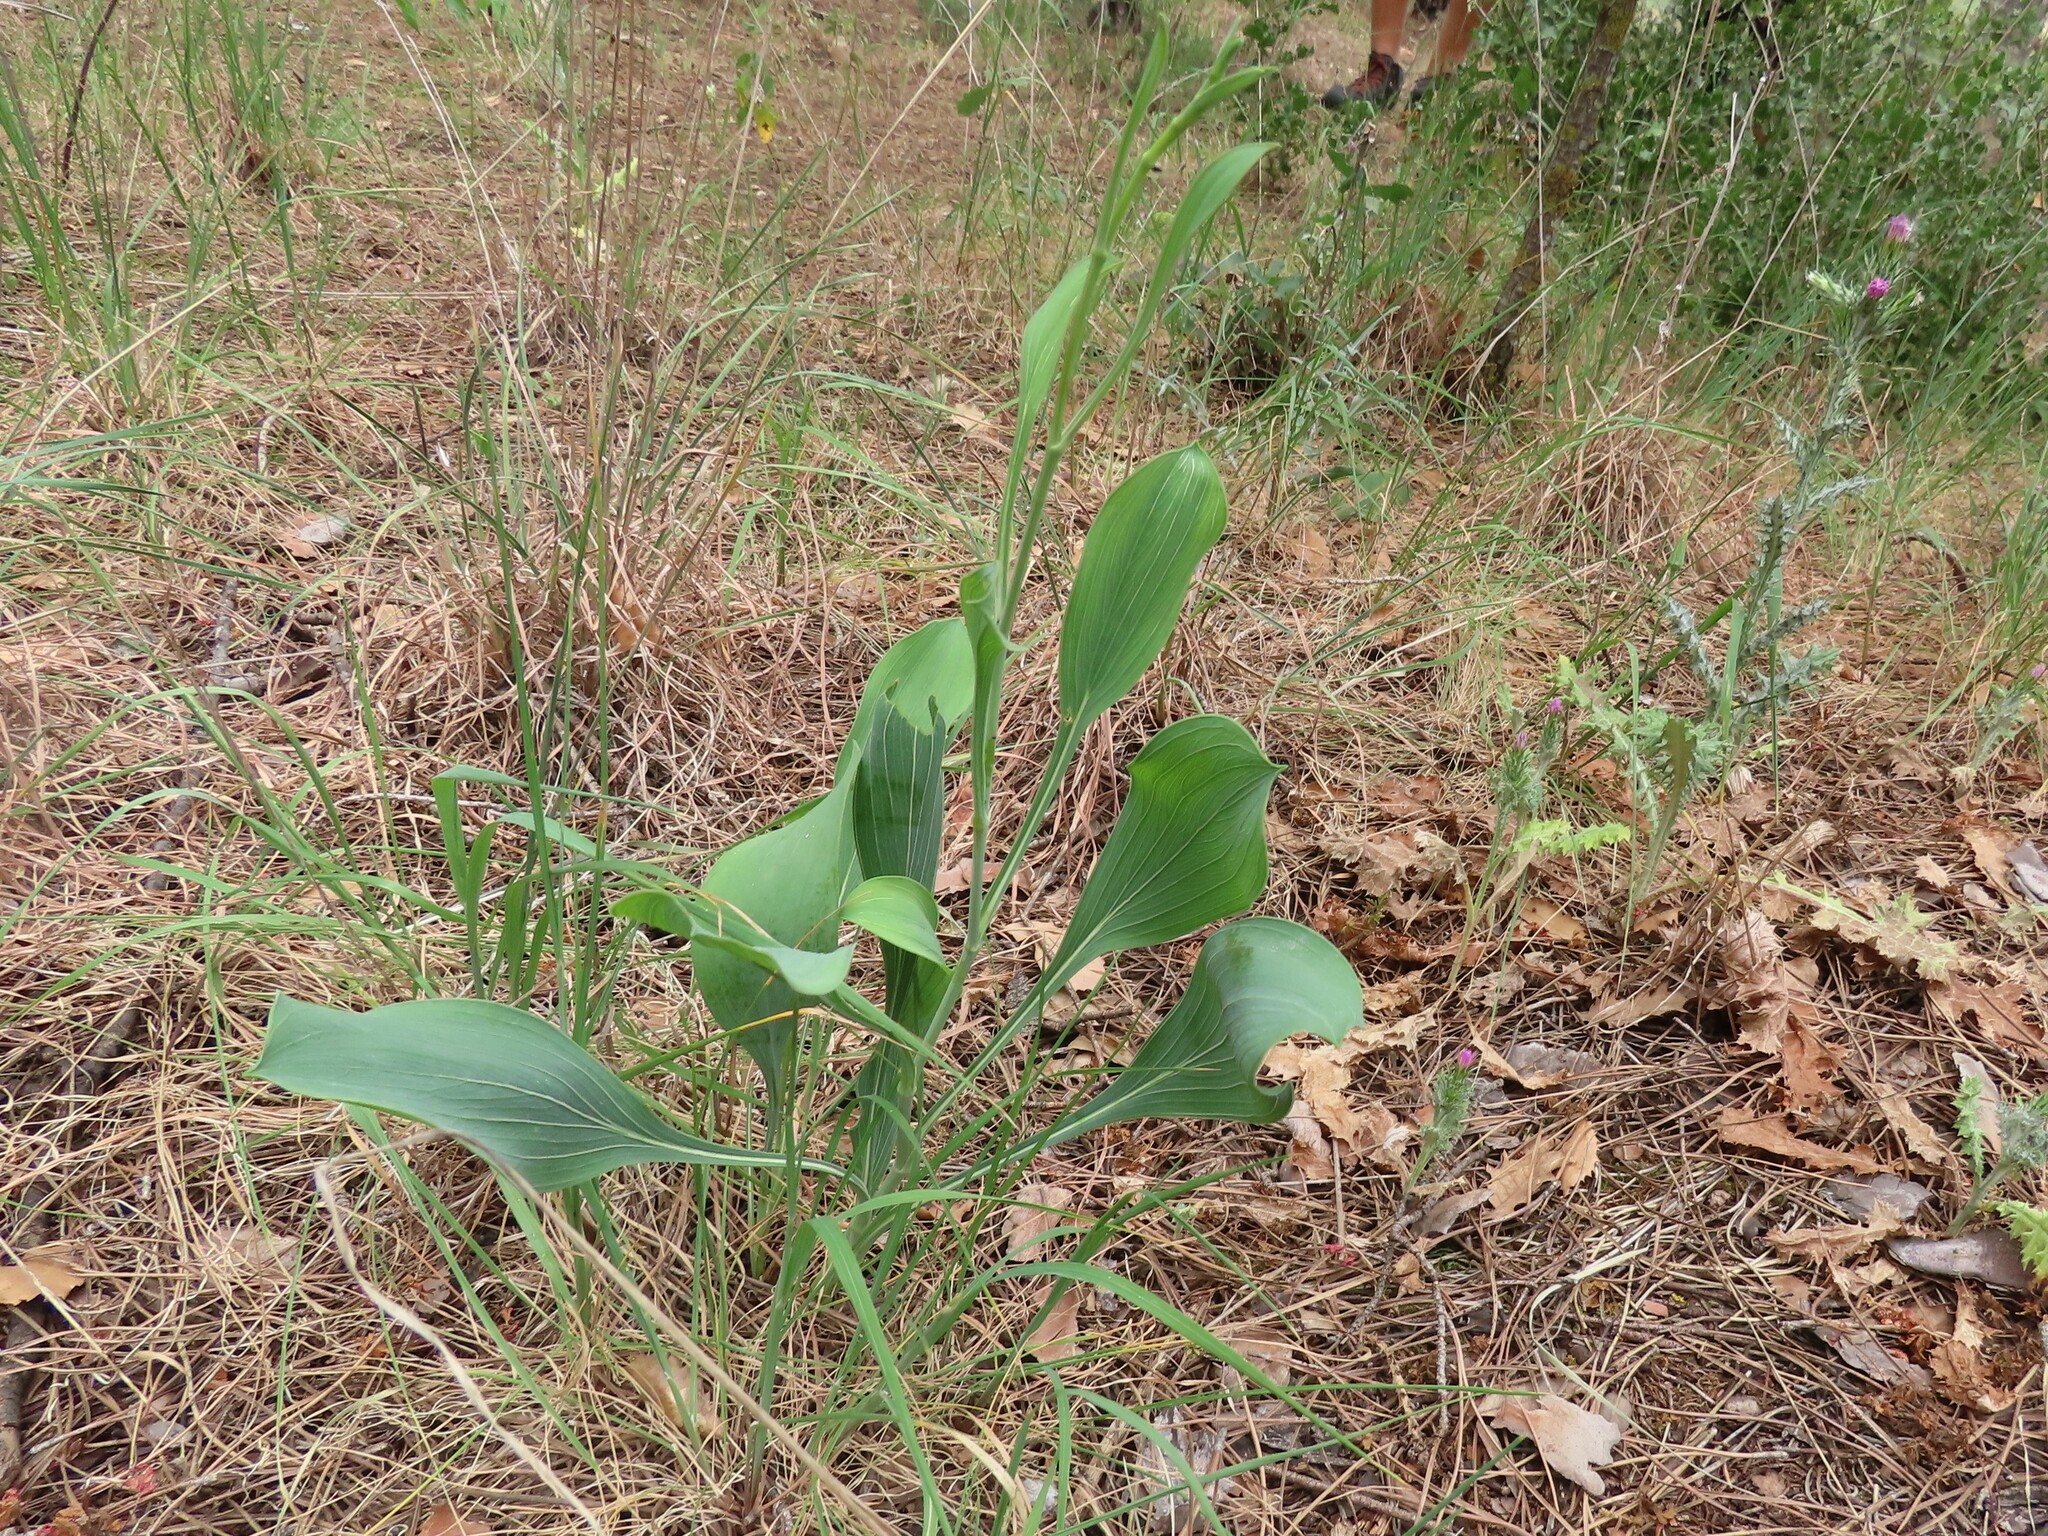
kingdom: Plantae
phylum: Tracheophyta
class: Magnoliopsida
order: Apiales
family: Apiaceae
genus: Bupleurum
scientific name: Bupleurum rigidum
